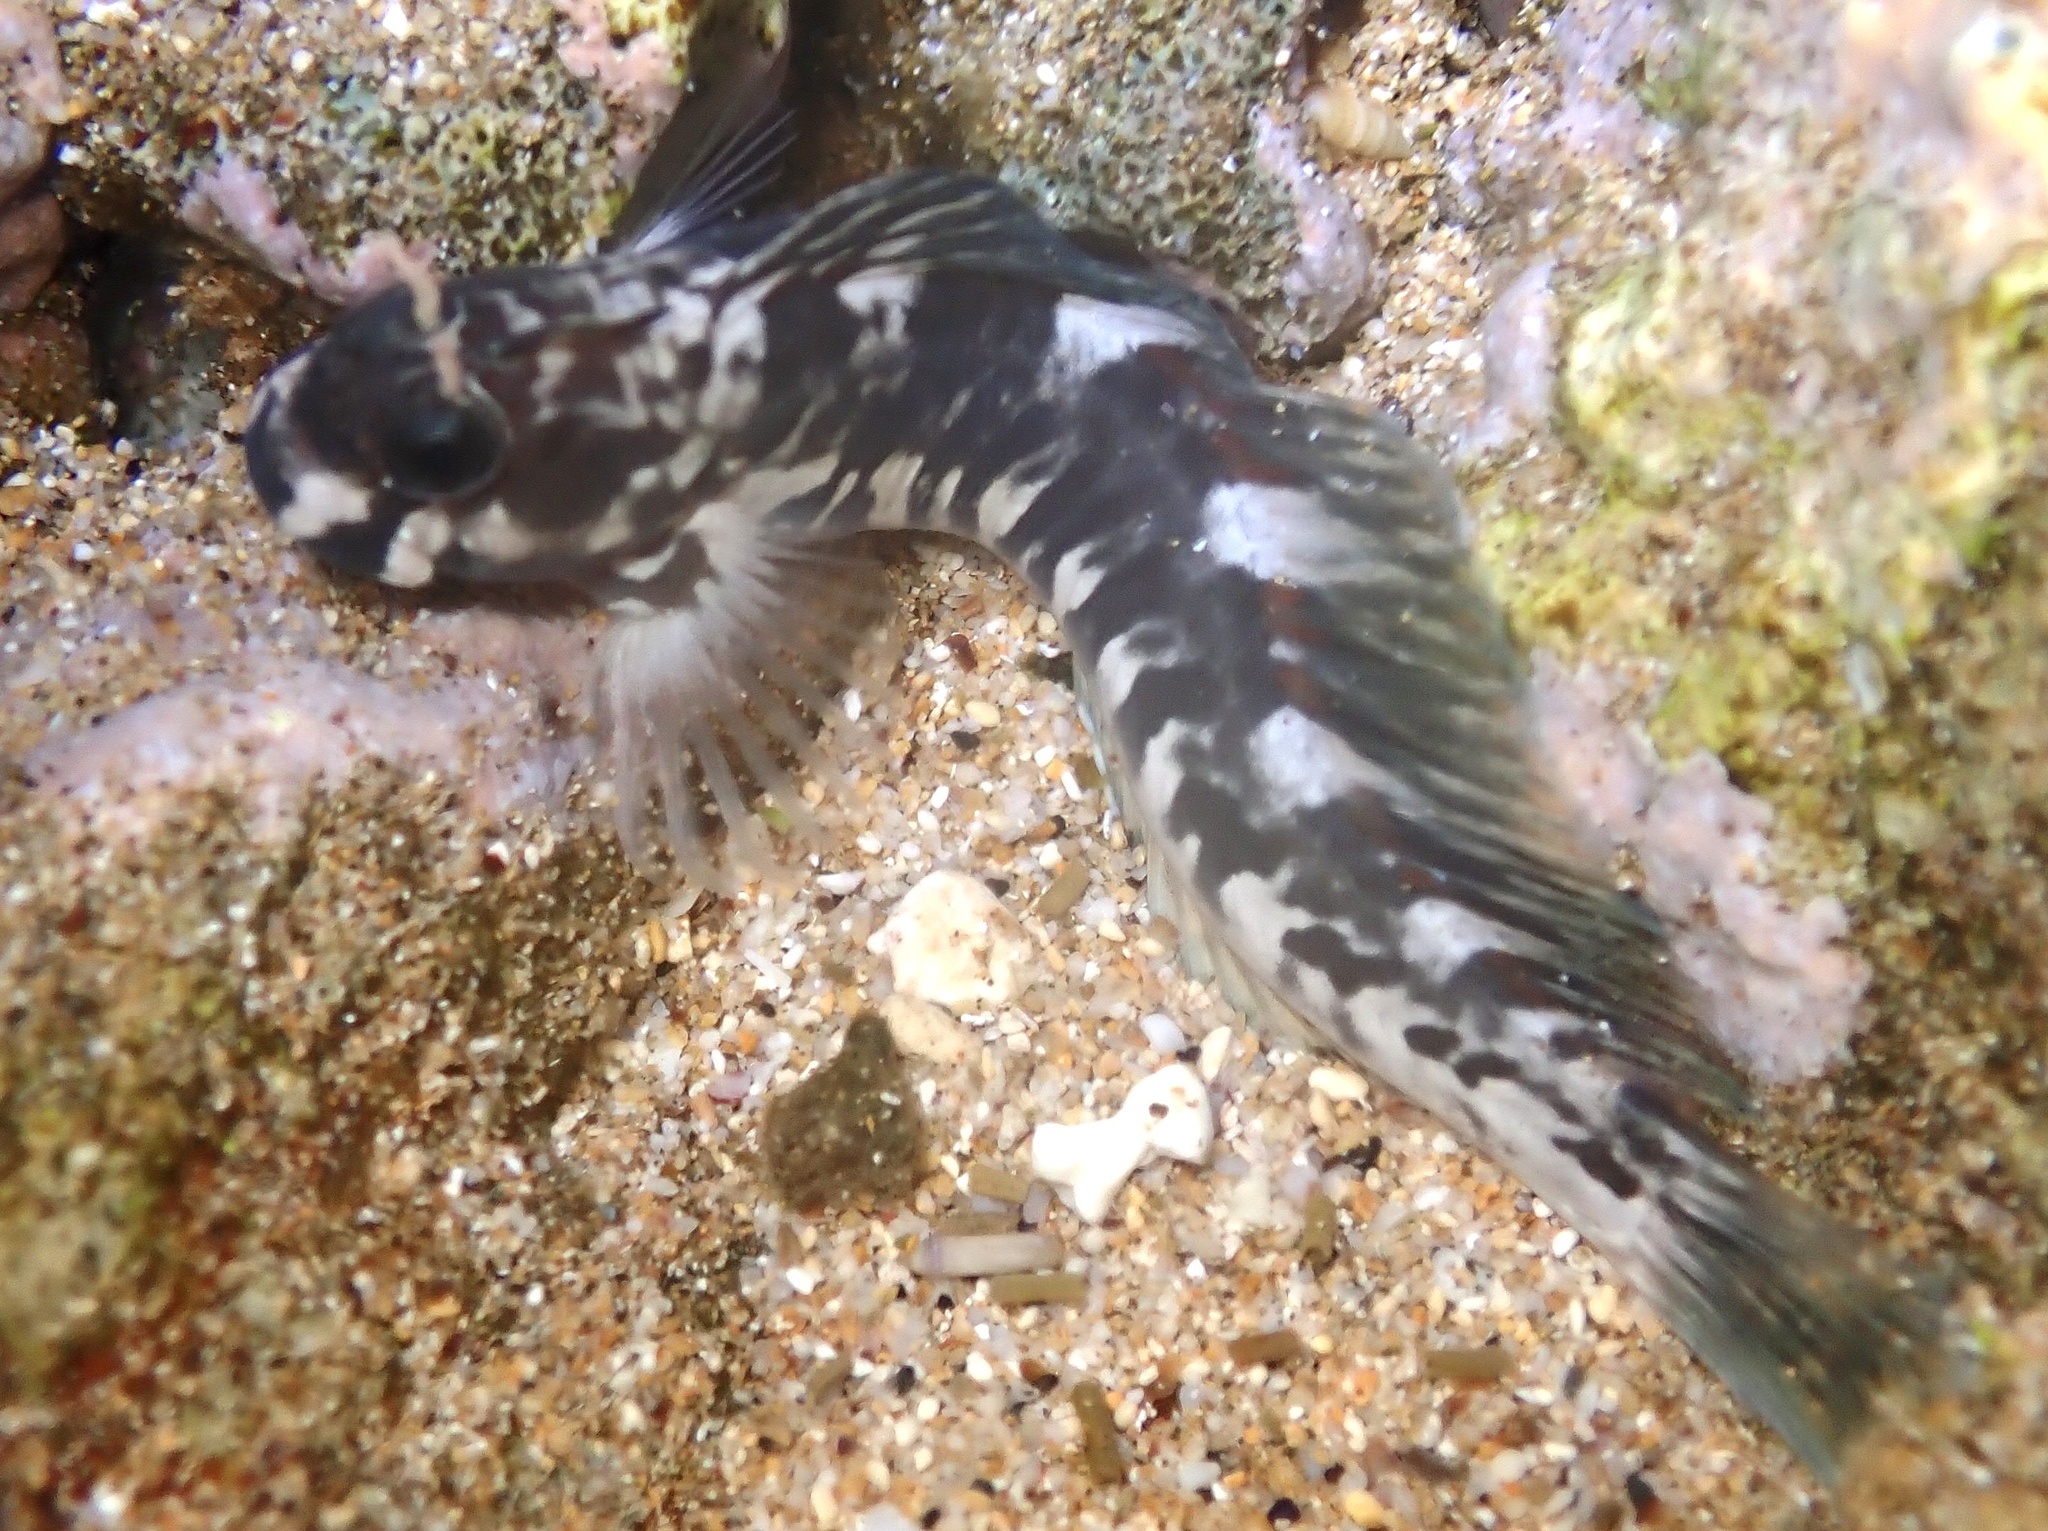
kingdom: Animalia
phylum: Chordata
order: Perciformes
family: Blenniidae
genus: Istiblennius
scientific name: Istiblennius zebra
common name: Zebra blenny
